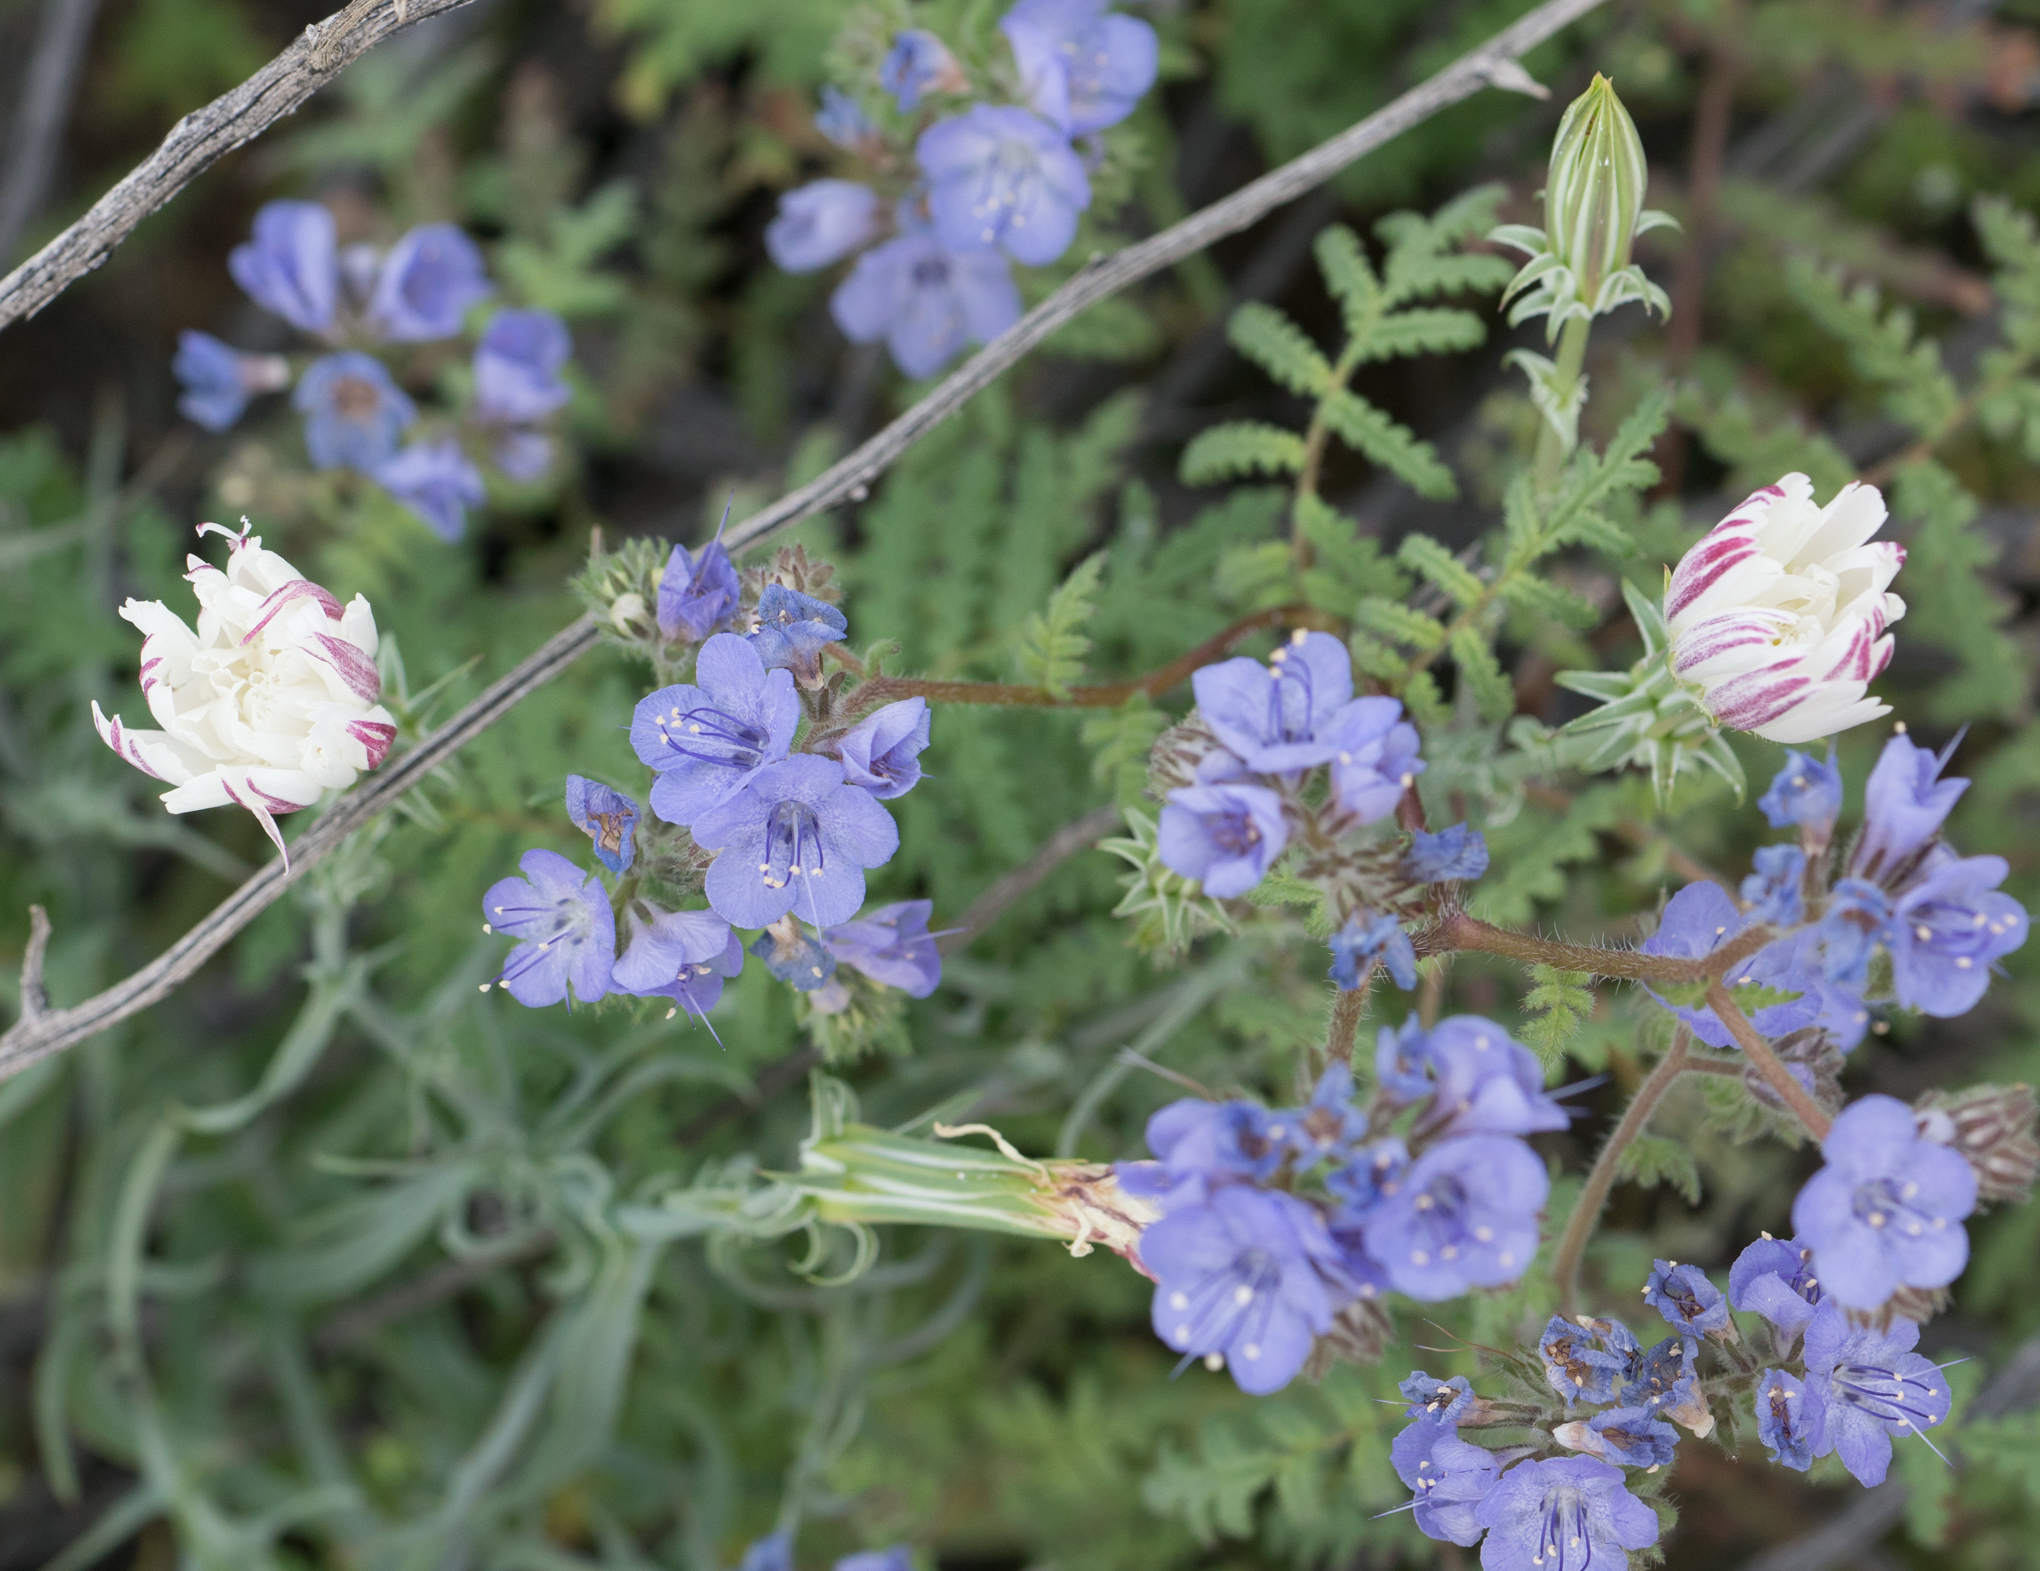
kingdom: Plantae
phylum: Tracheophyta
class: Magnoliopsida
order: Asterales
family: Asteraceae
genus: Rafinesquia
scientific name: Rafinesquia neomexicana
